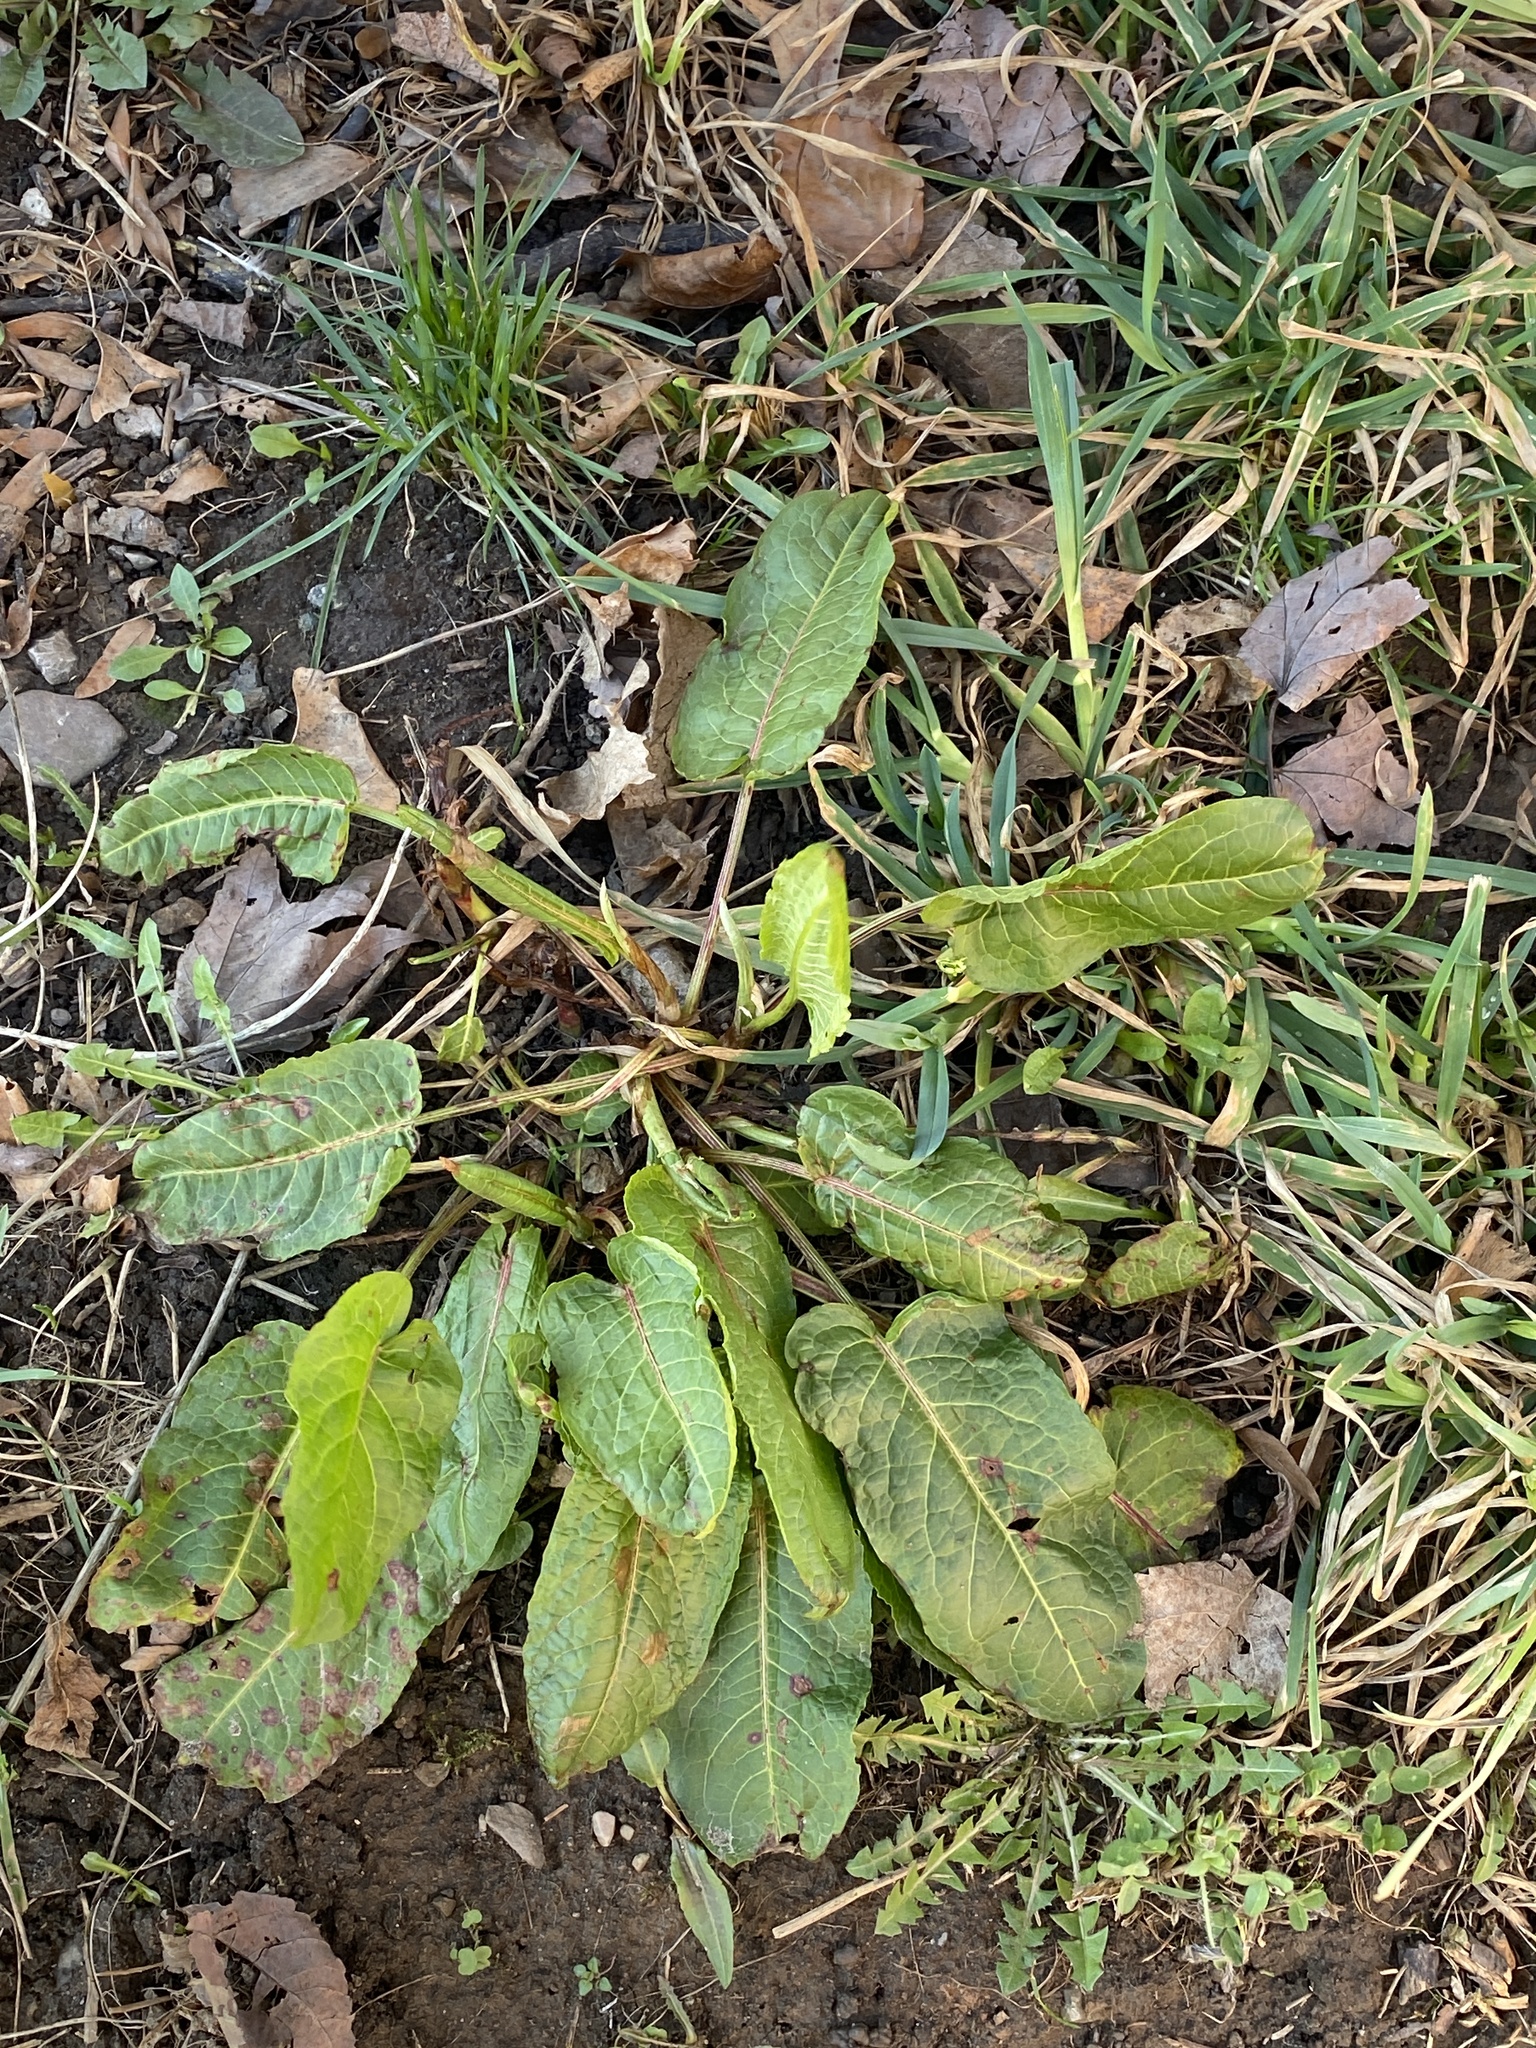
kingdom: Plantae
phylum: Tracheophyta
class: Magnoliopsida
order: Caryophyllales
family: Polygonaceae
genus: Rumex
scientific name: Rumex obtusifolius
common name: Bitter dock
